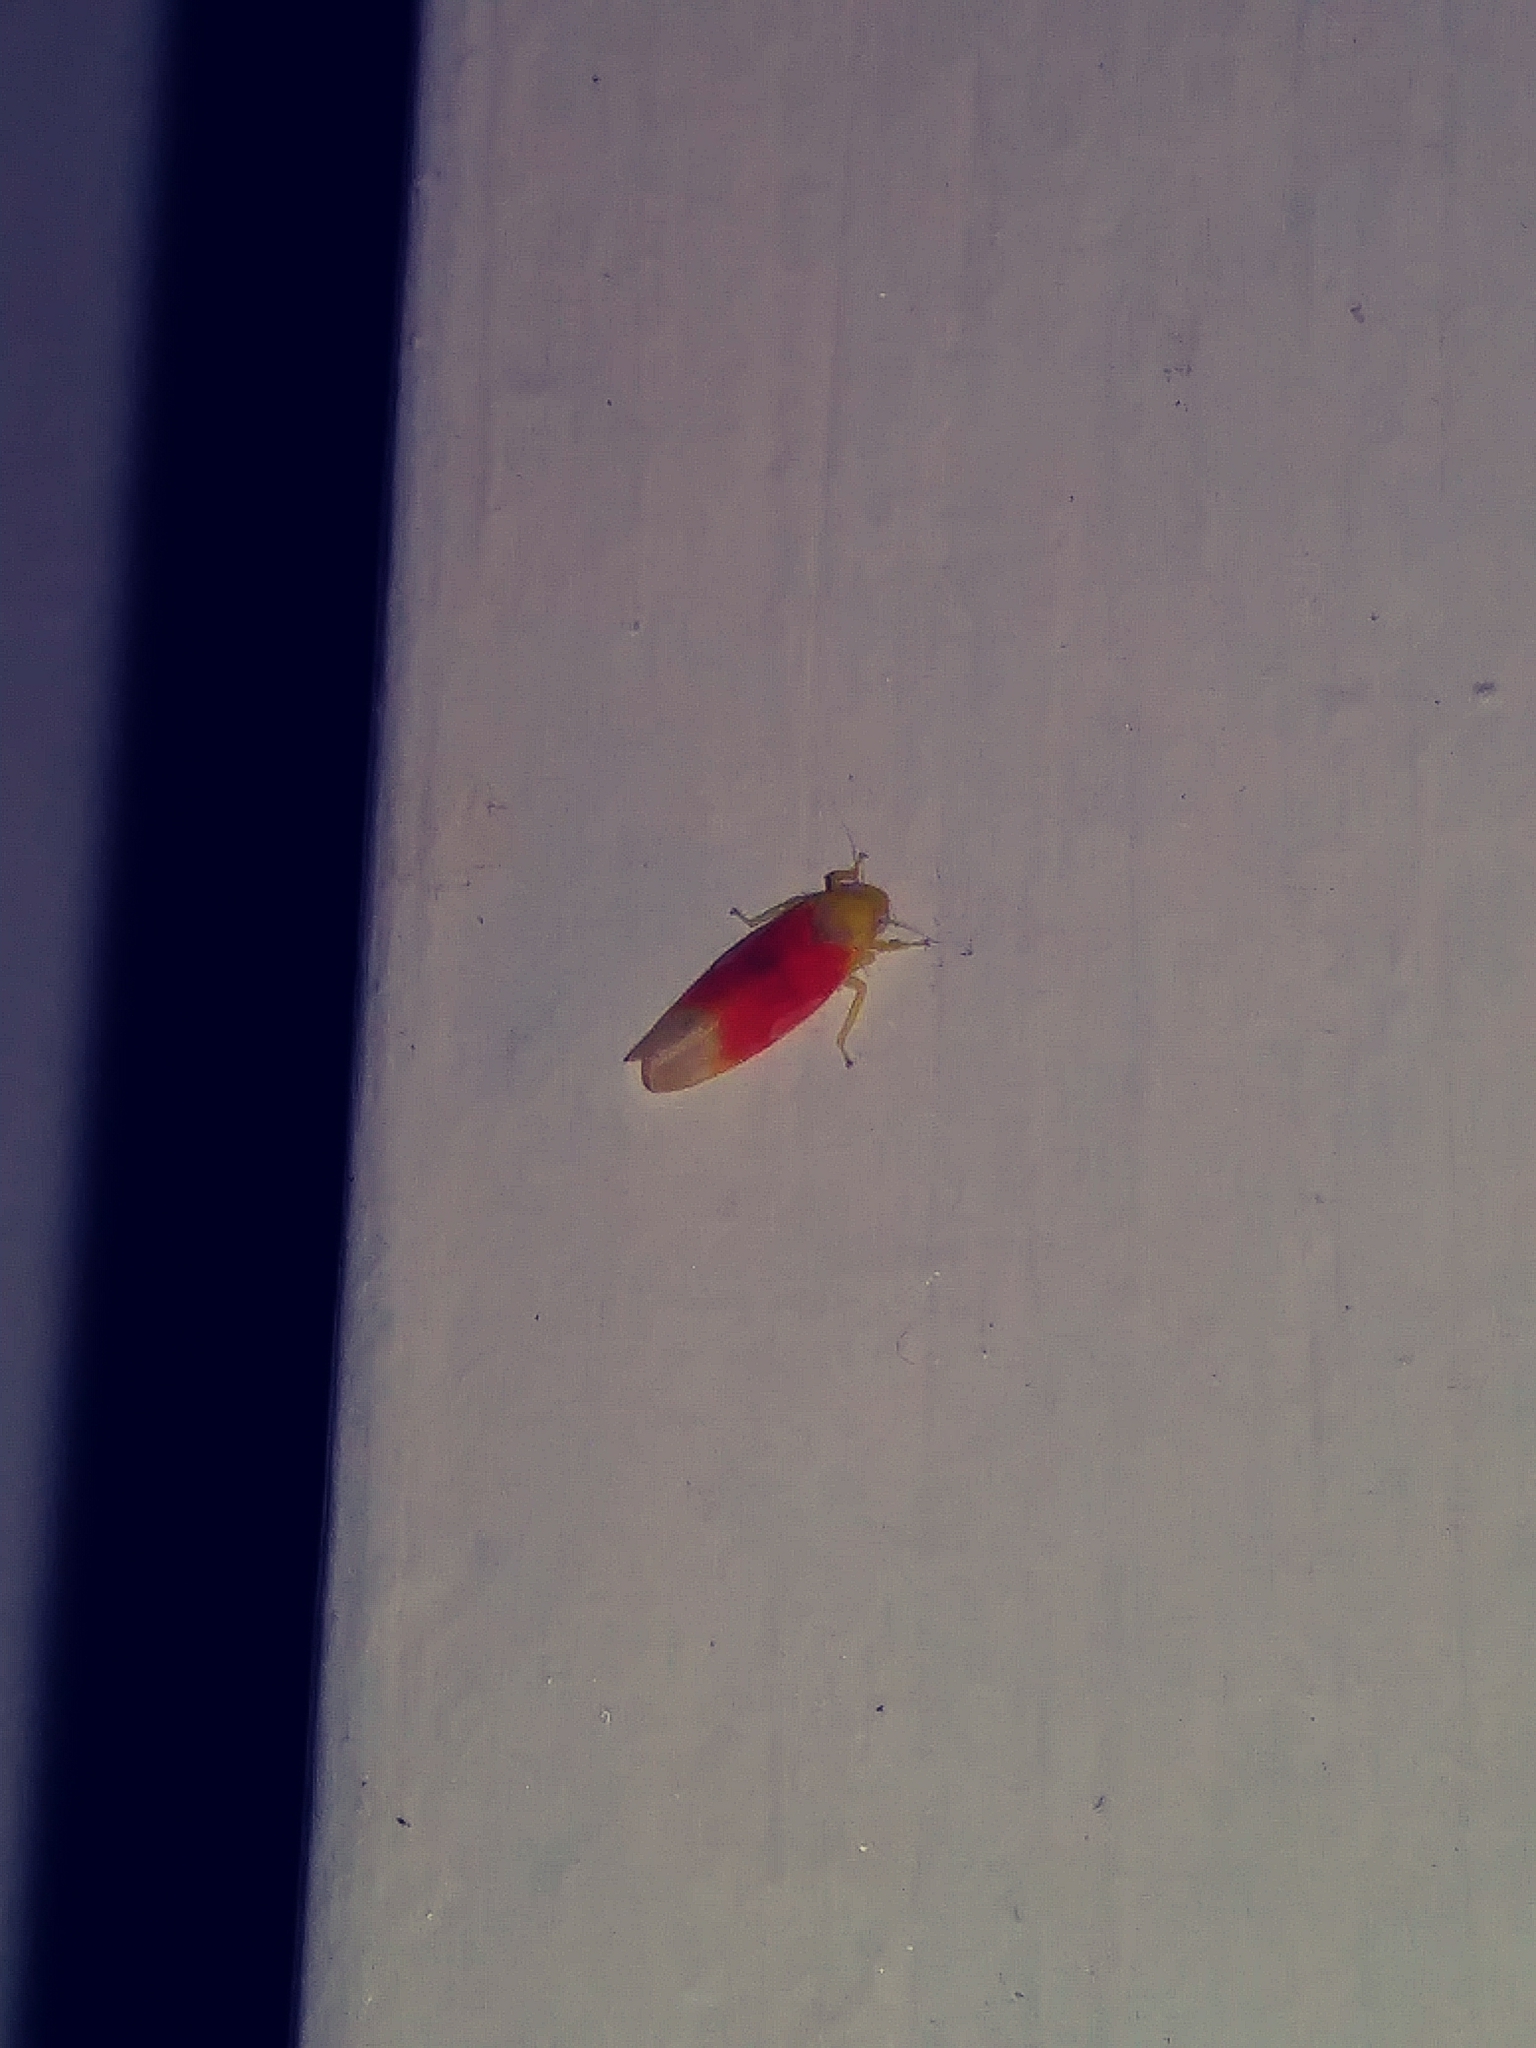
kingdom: Animalia
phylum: Arthropoda
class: Insecta
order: Hemiptera
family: Cicadellidae
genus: Ossiannilssonola
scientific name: Ossiannilssonola tunicarubra
